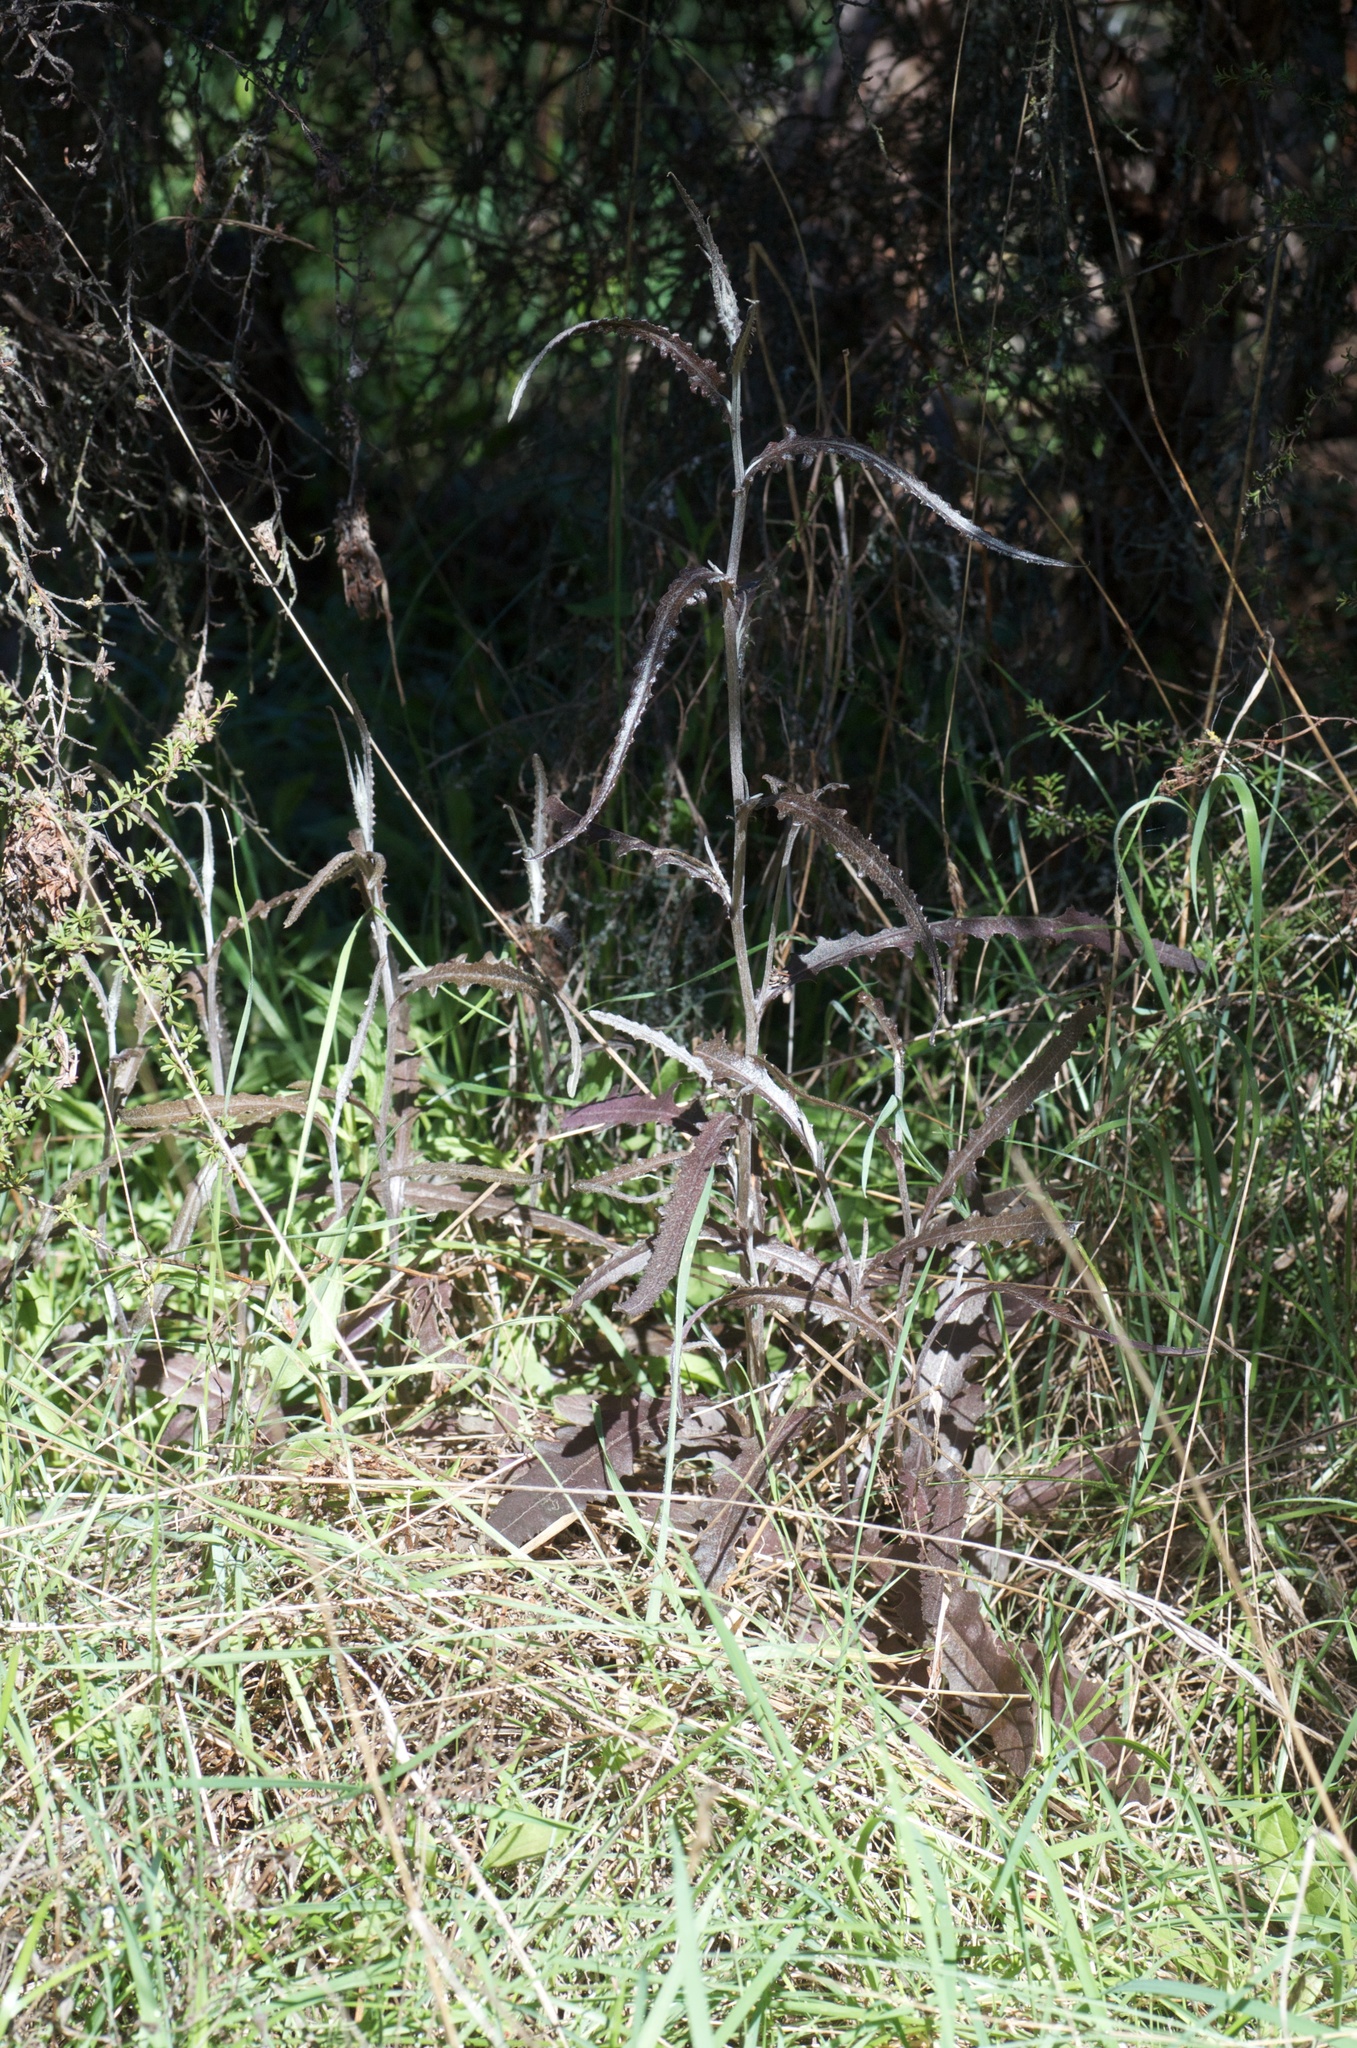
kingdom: Plantae
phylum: Tracheophyta
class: Magnoliopsida
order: Asterales
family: Asteraceae
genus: Senecio
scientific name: Senecio dunedinensis
